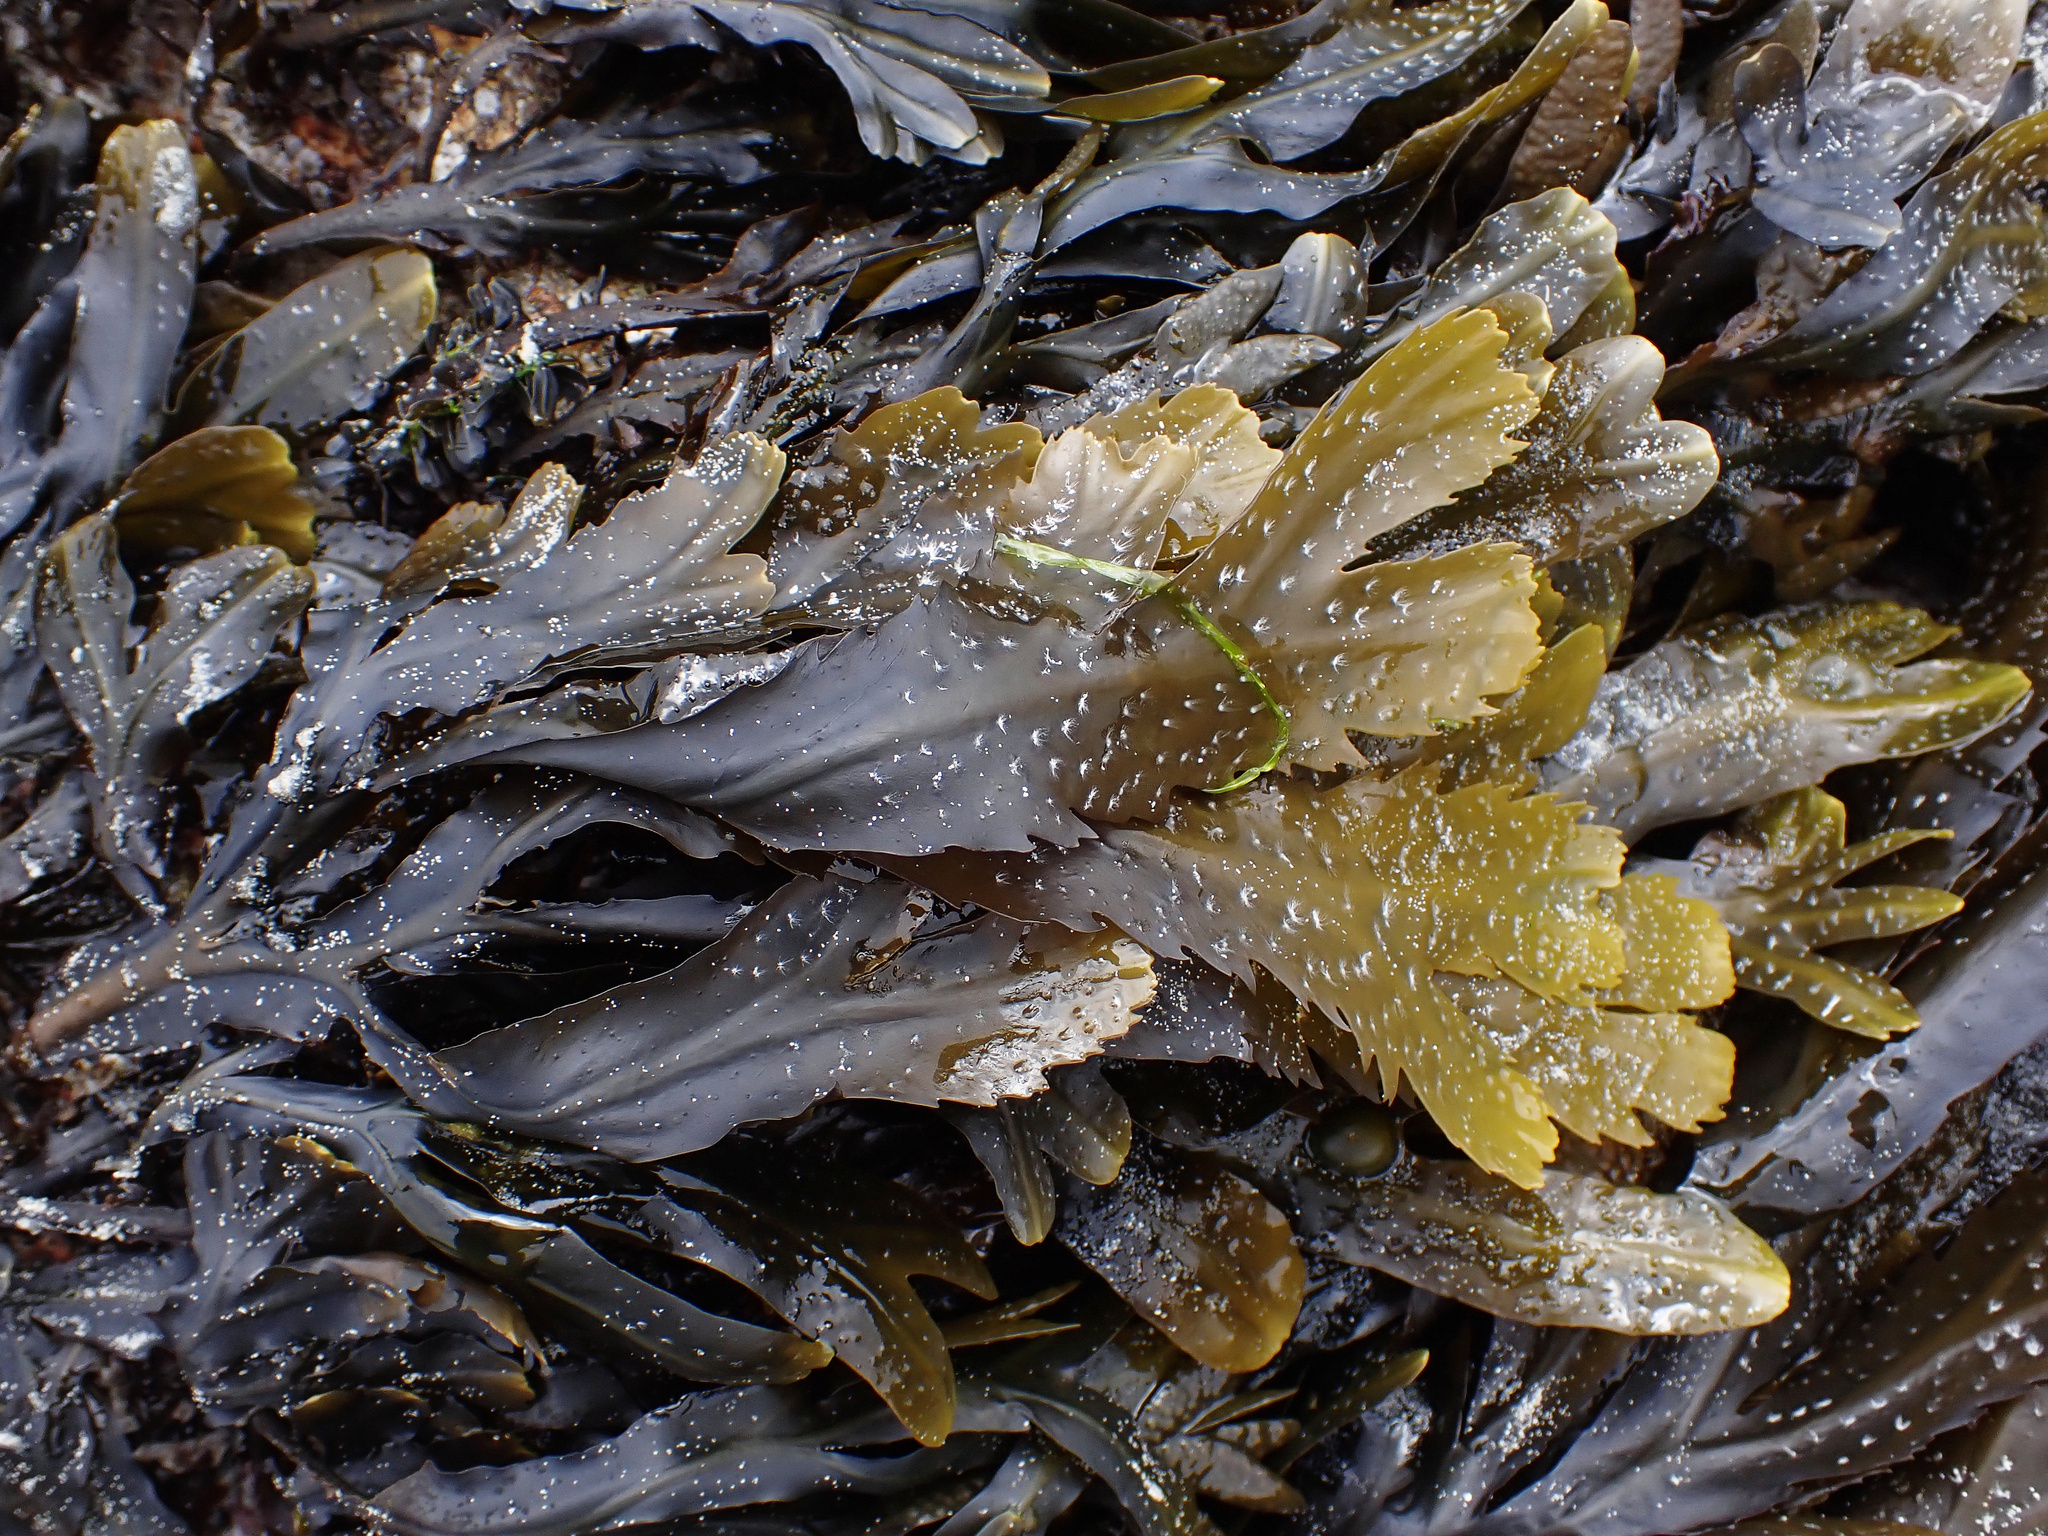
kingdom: Chromista
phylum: Ochrophyta
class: Phaeophyceae
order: Fucales
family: Fucaceae
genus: Fucus
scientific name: Fucus serratus
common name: Toothed wrack
